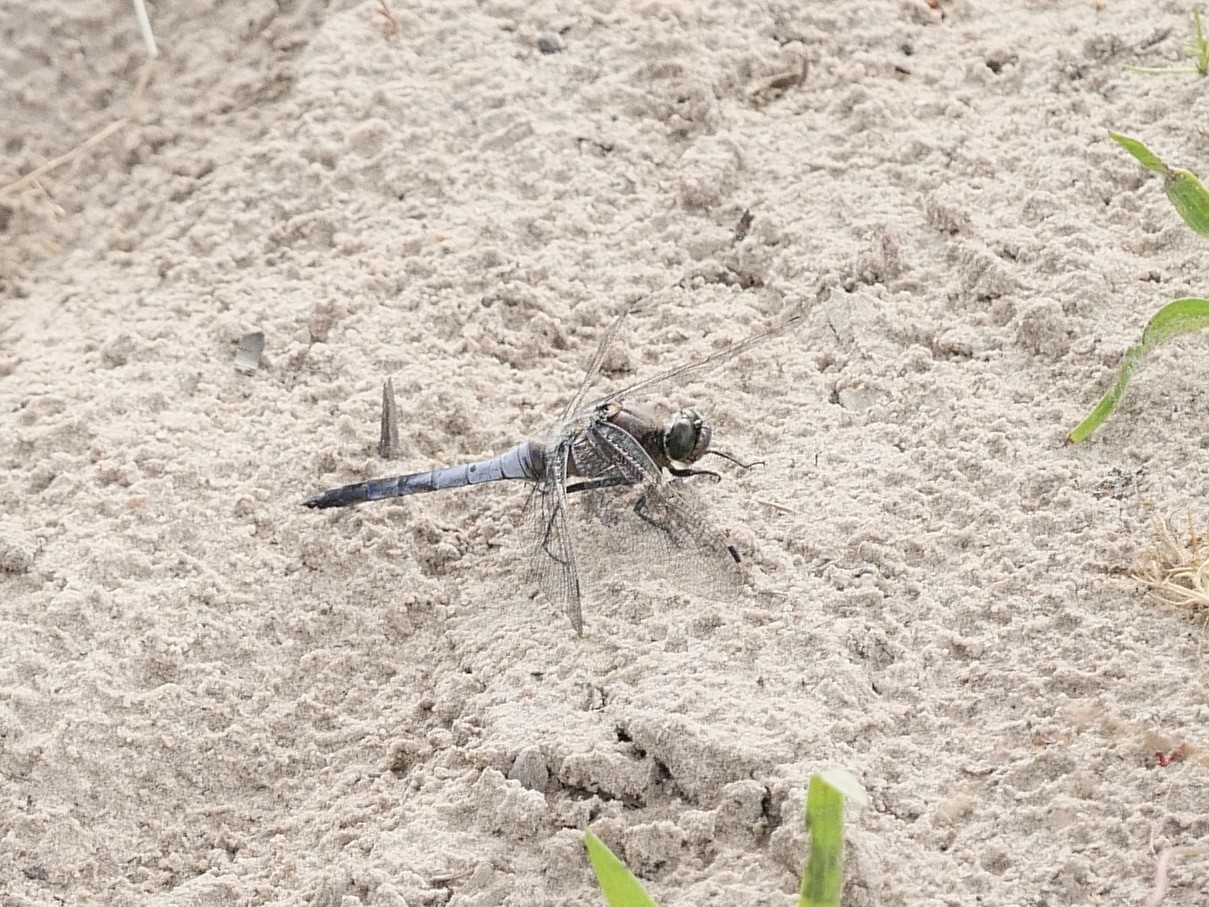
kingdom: Animalia
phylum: Arthropoda
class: Insecta
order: Odonata
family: Libellulidae
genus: Orthetrum
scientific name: Orthetrum cancellatum
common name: Black-tailed skimmer
